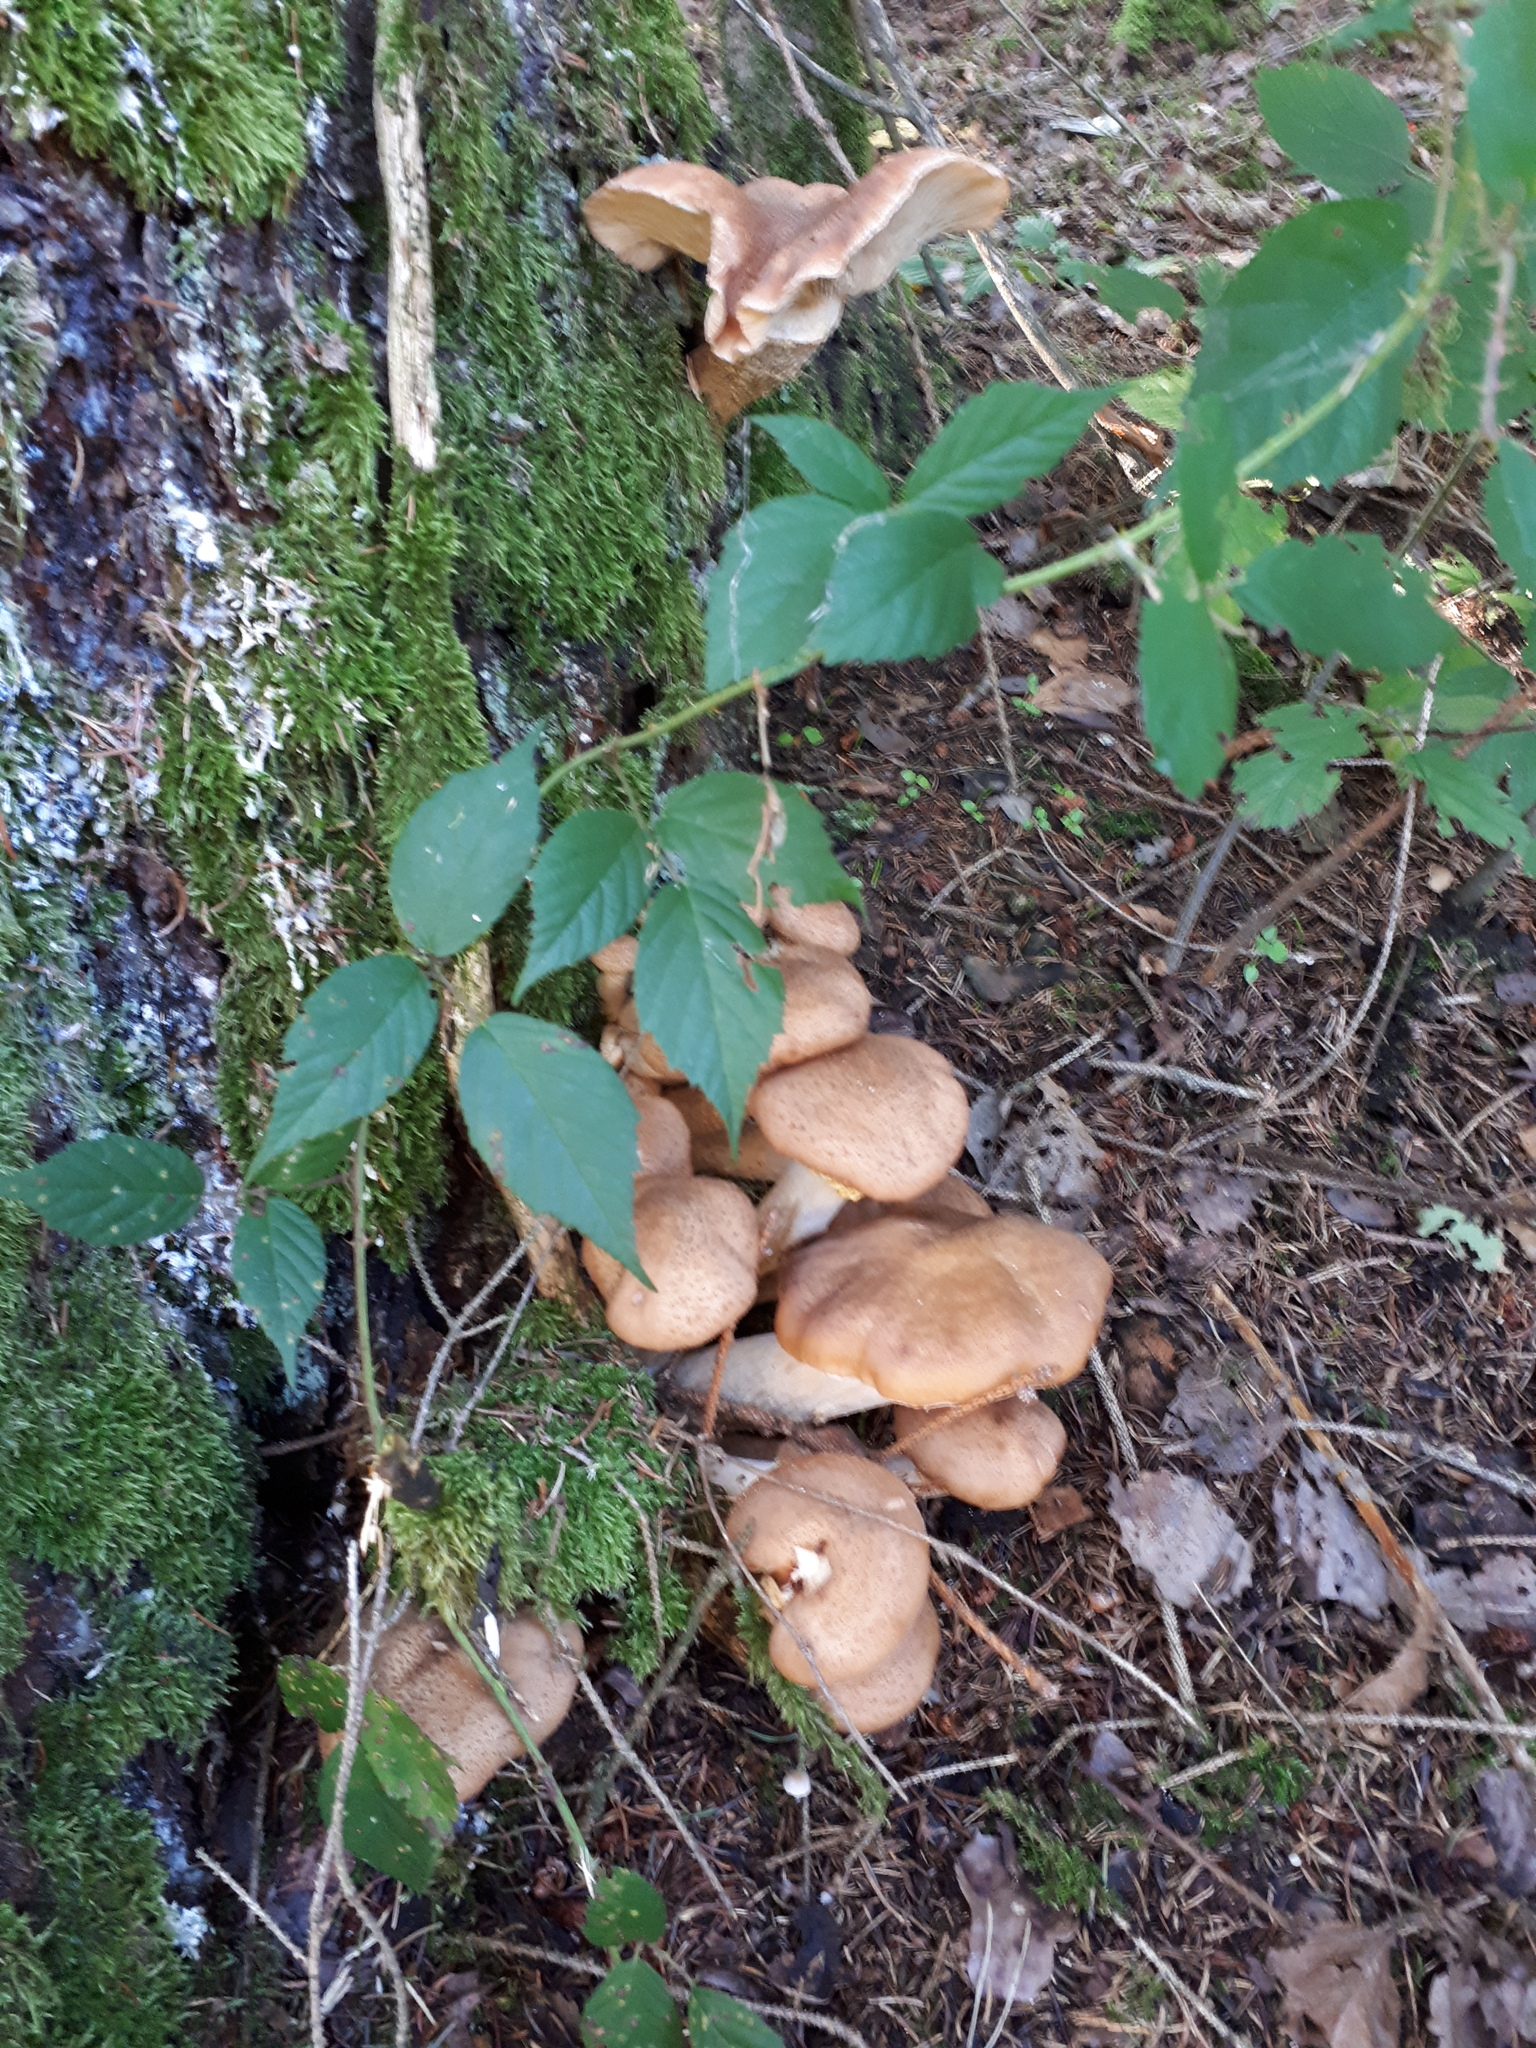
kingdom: Fungi
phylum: Basidiomycota
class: Agaricomycetes
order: Agaricales
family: Physalacriaceae
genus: Armillaria
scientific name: Armillaria ostoyae
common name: Dark honey fungus
